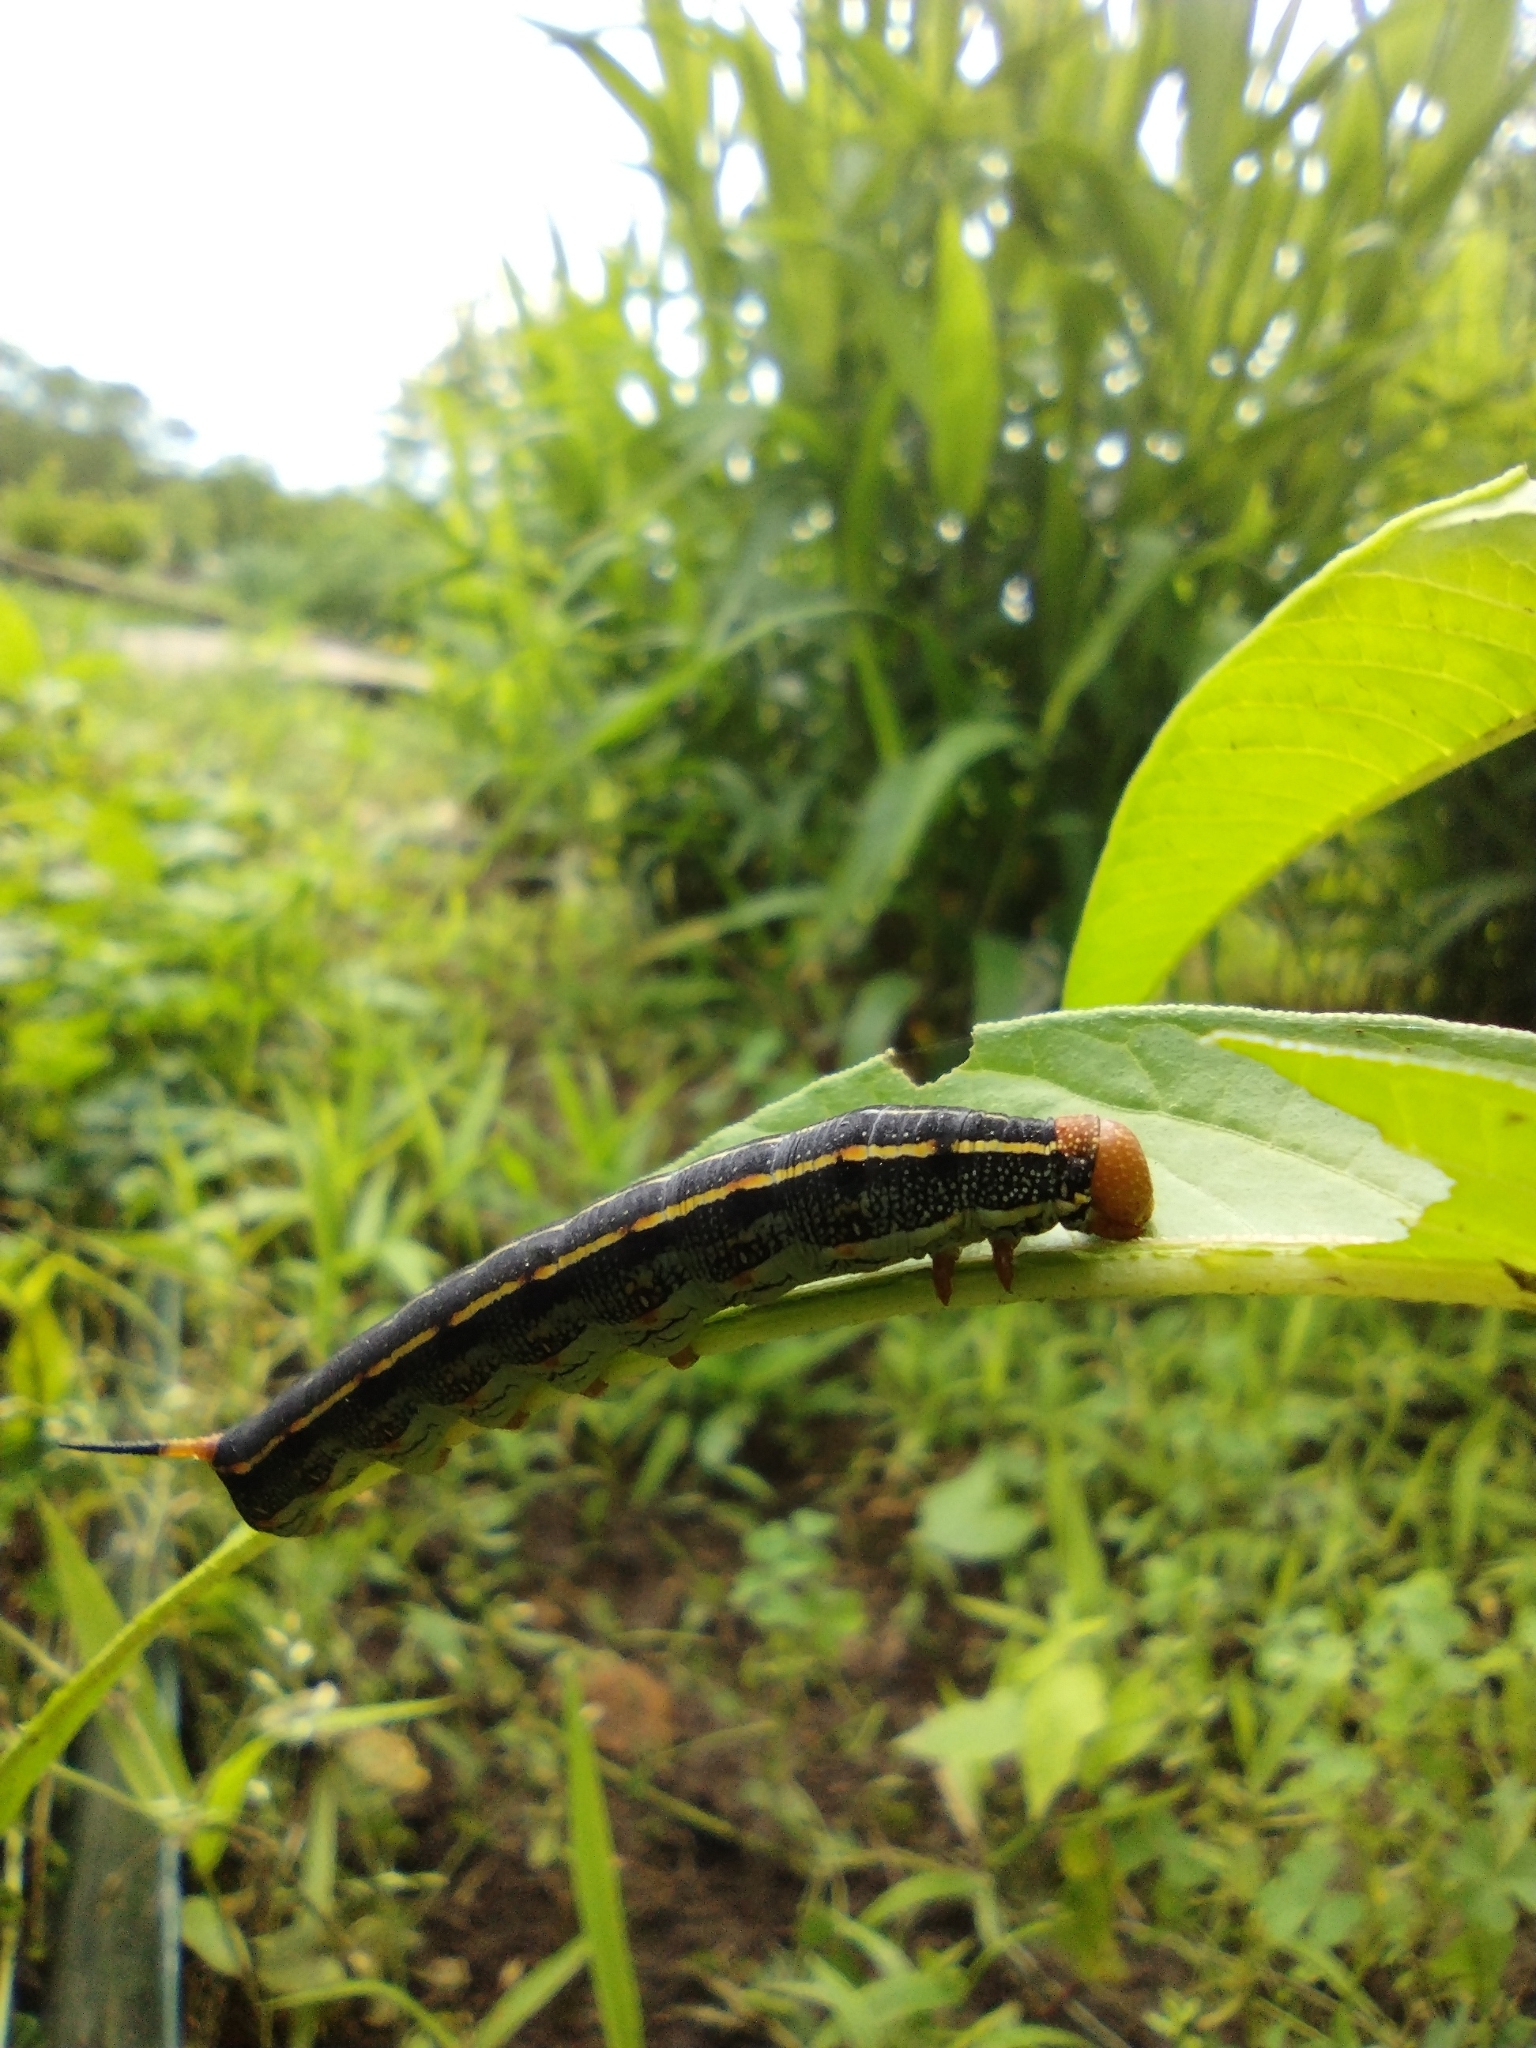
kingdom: Animalia
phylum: Arthropoda
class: Insecta
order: Lepidoptera
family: Sphingidae
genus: Hyles
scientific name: Hyles lineata
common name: White-lined sphinx
